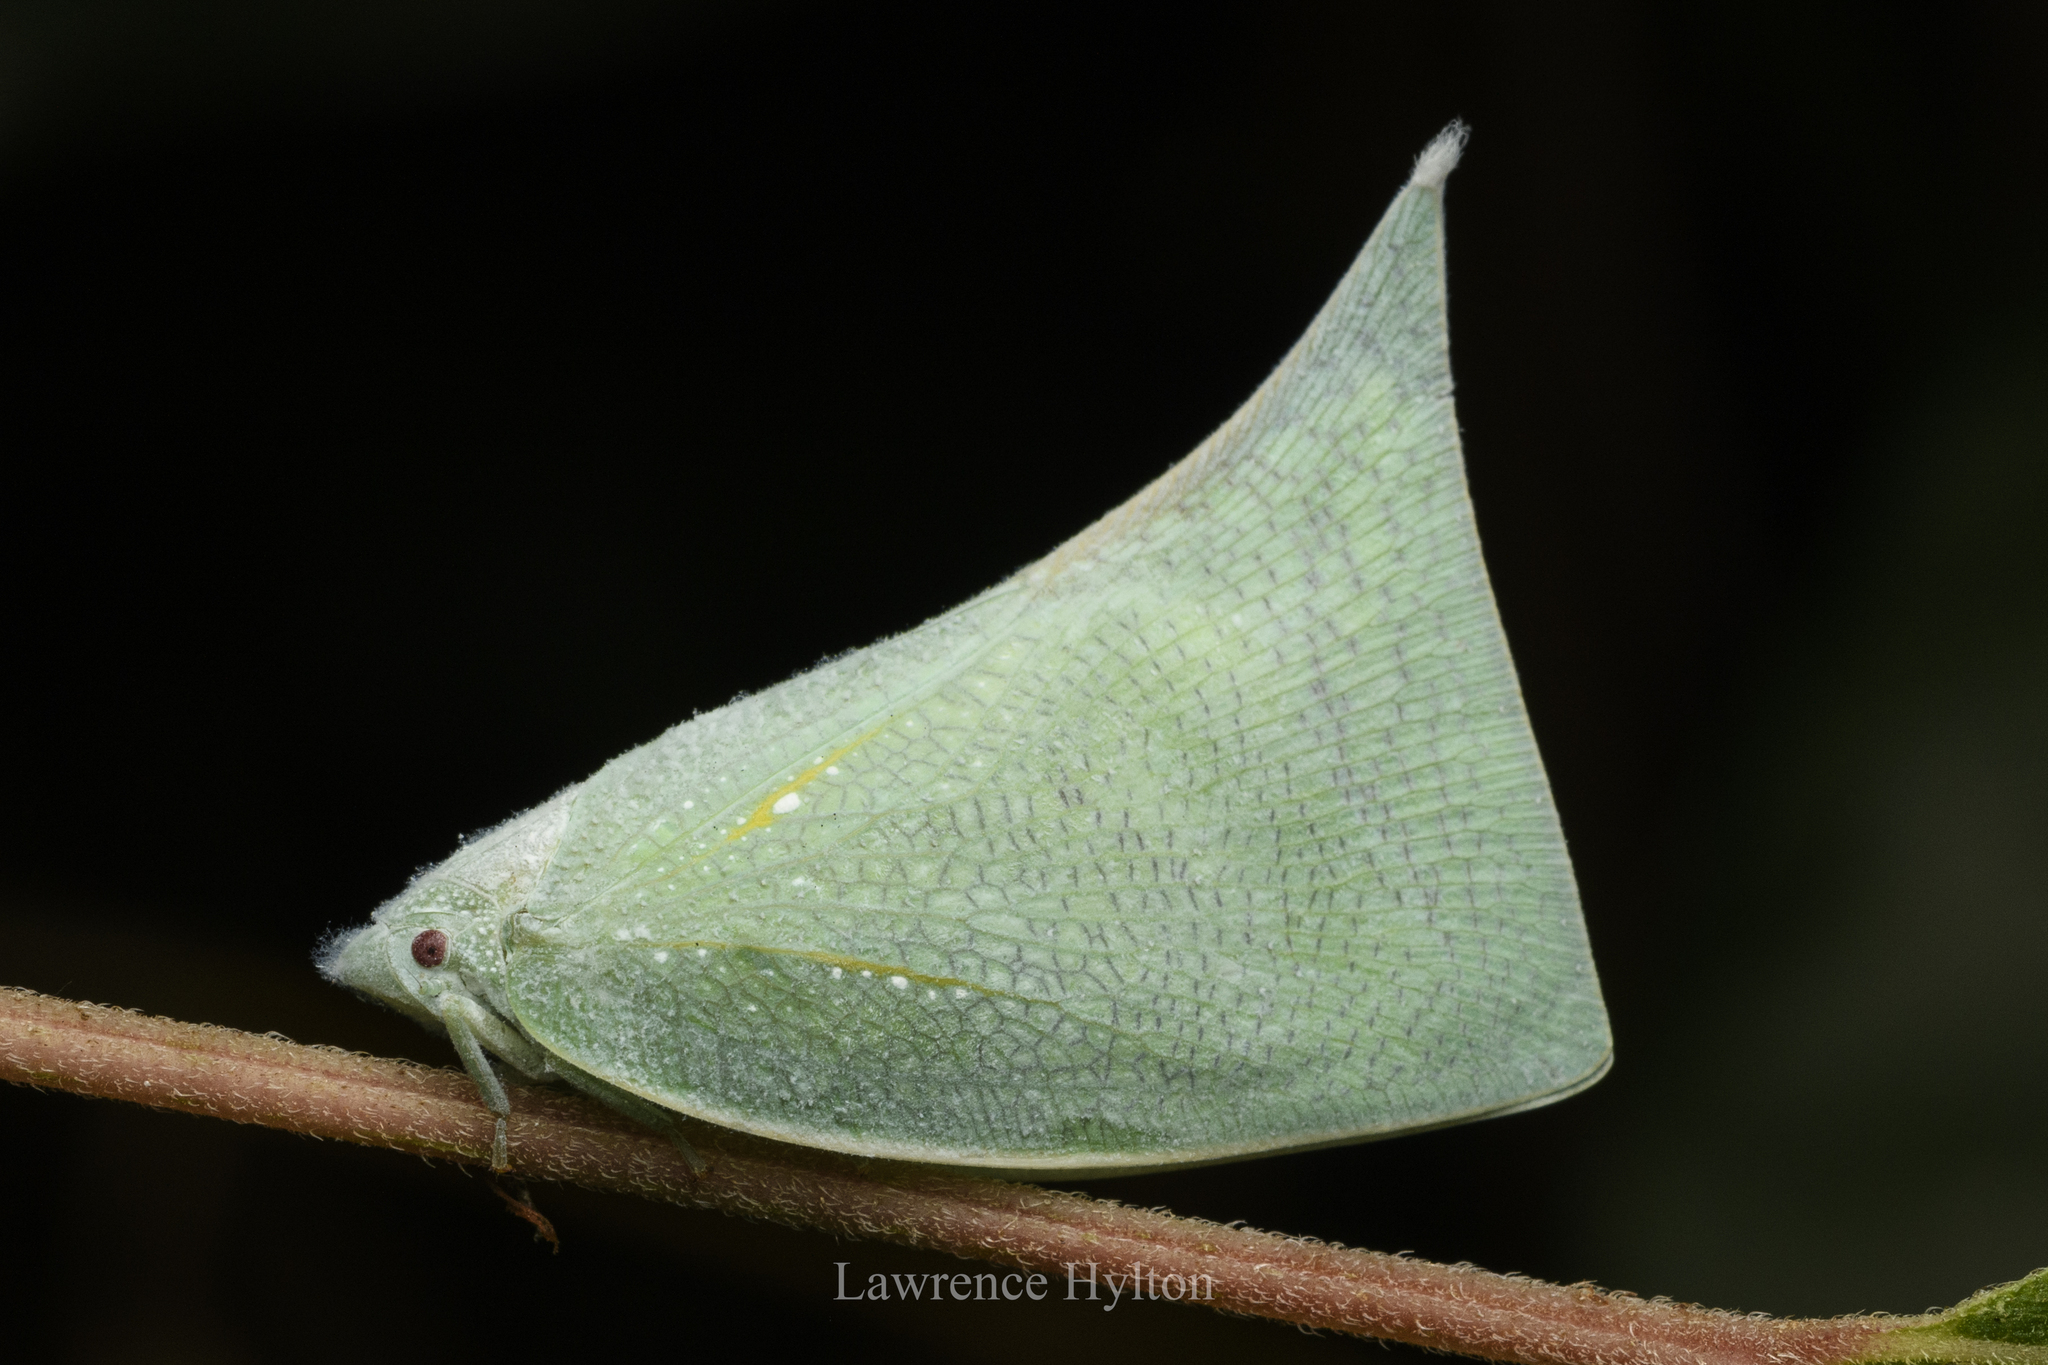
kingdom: Animalia
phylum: Arthropoda
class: Insecta
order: Hemiptera
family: Flatidae
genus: Lawana
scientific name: Lawana imitata
